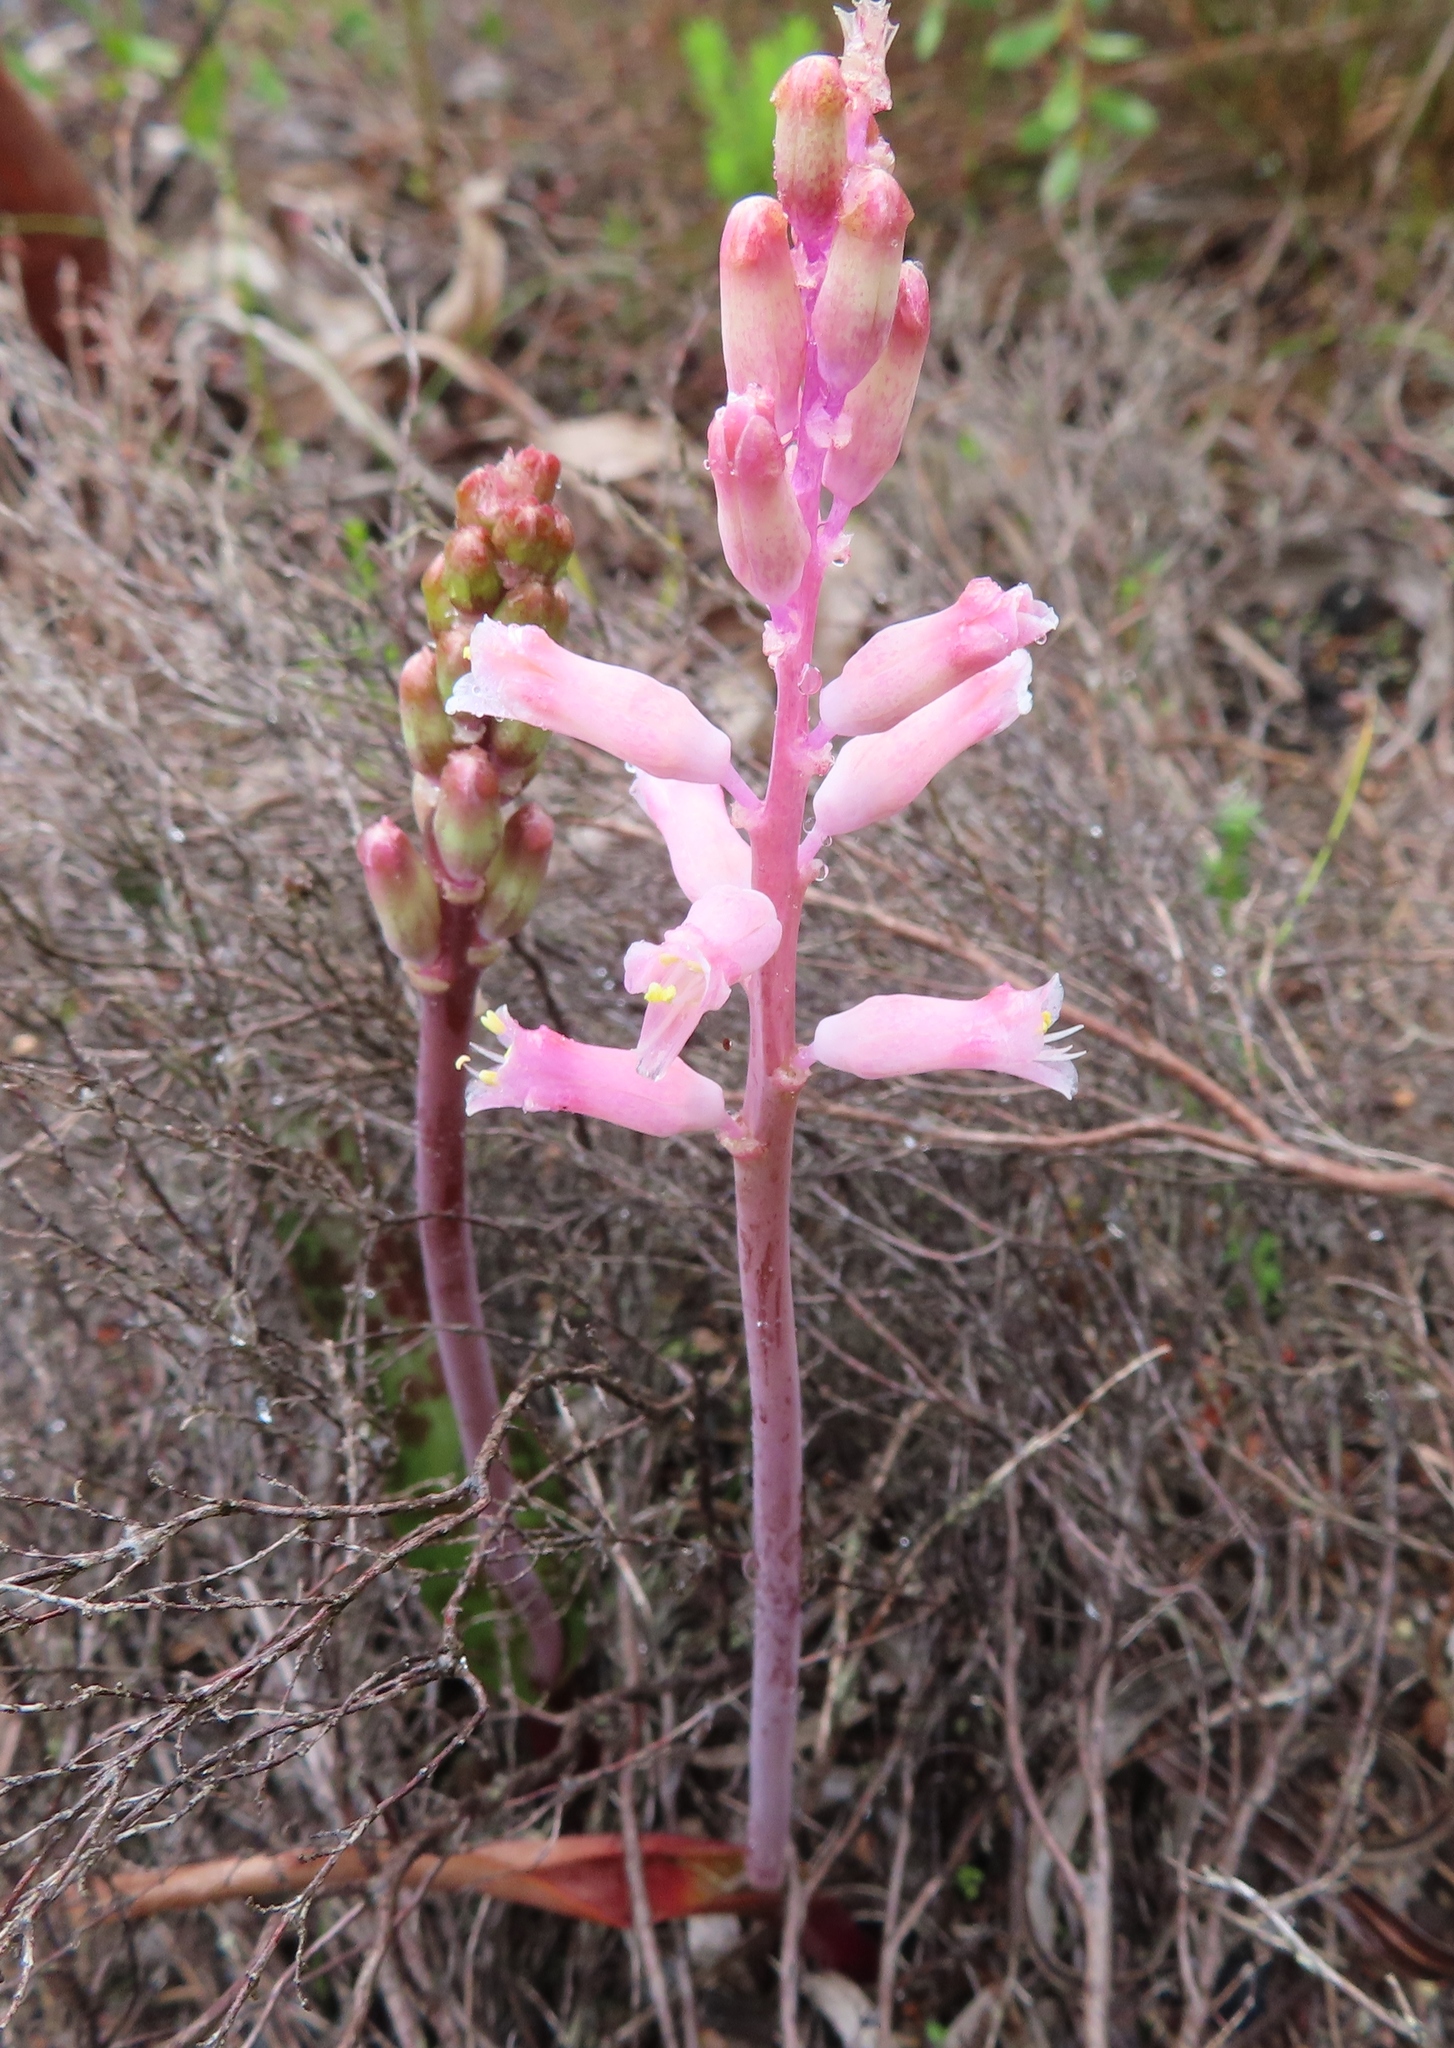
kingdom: Plantae
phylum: Tracheophyta
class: Liliopsida
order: Asparagales
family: Asparagaceae
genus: Lachenalia
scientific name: Lachenalia rosea
